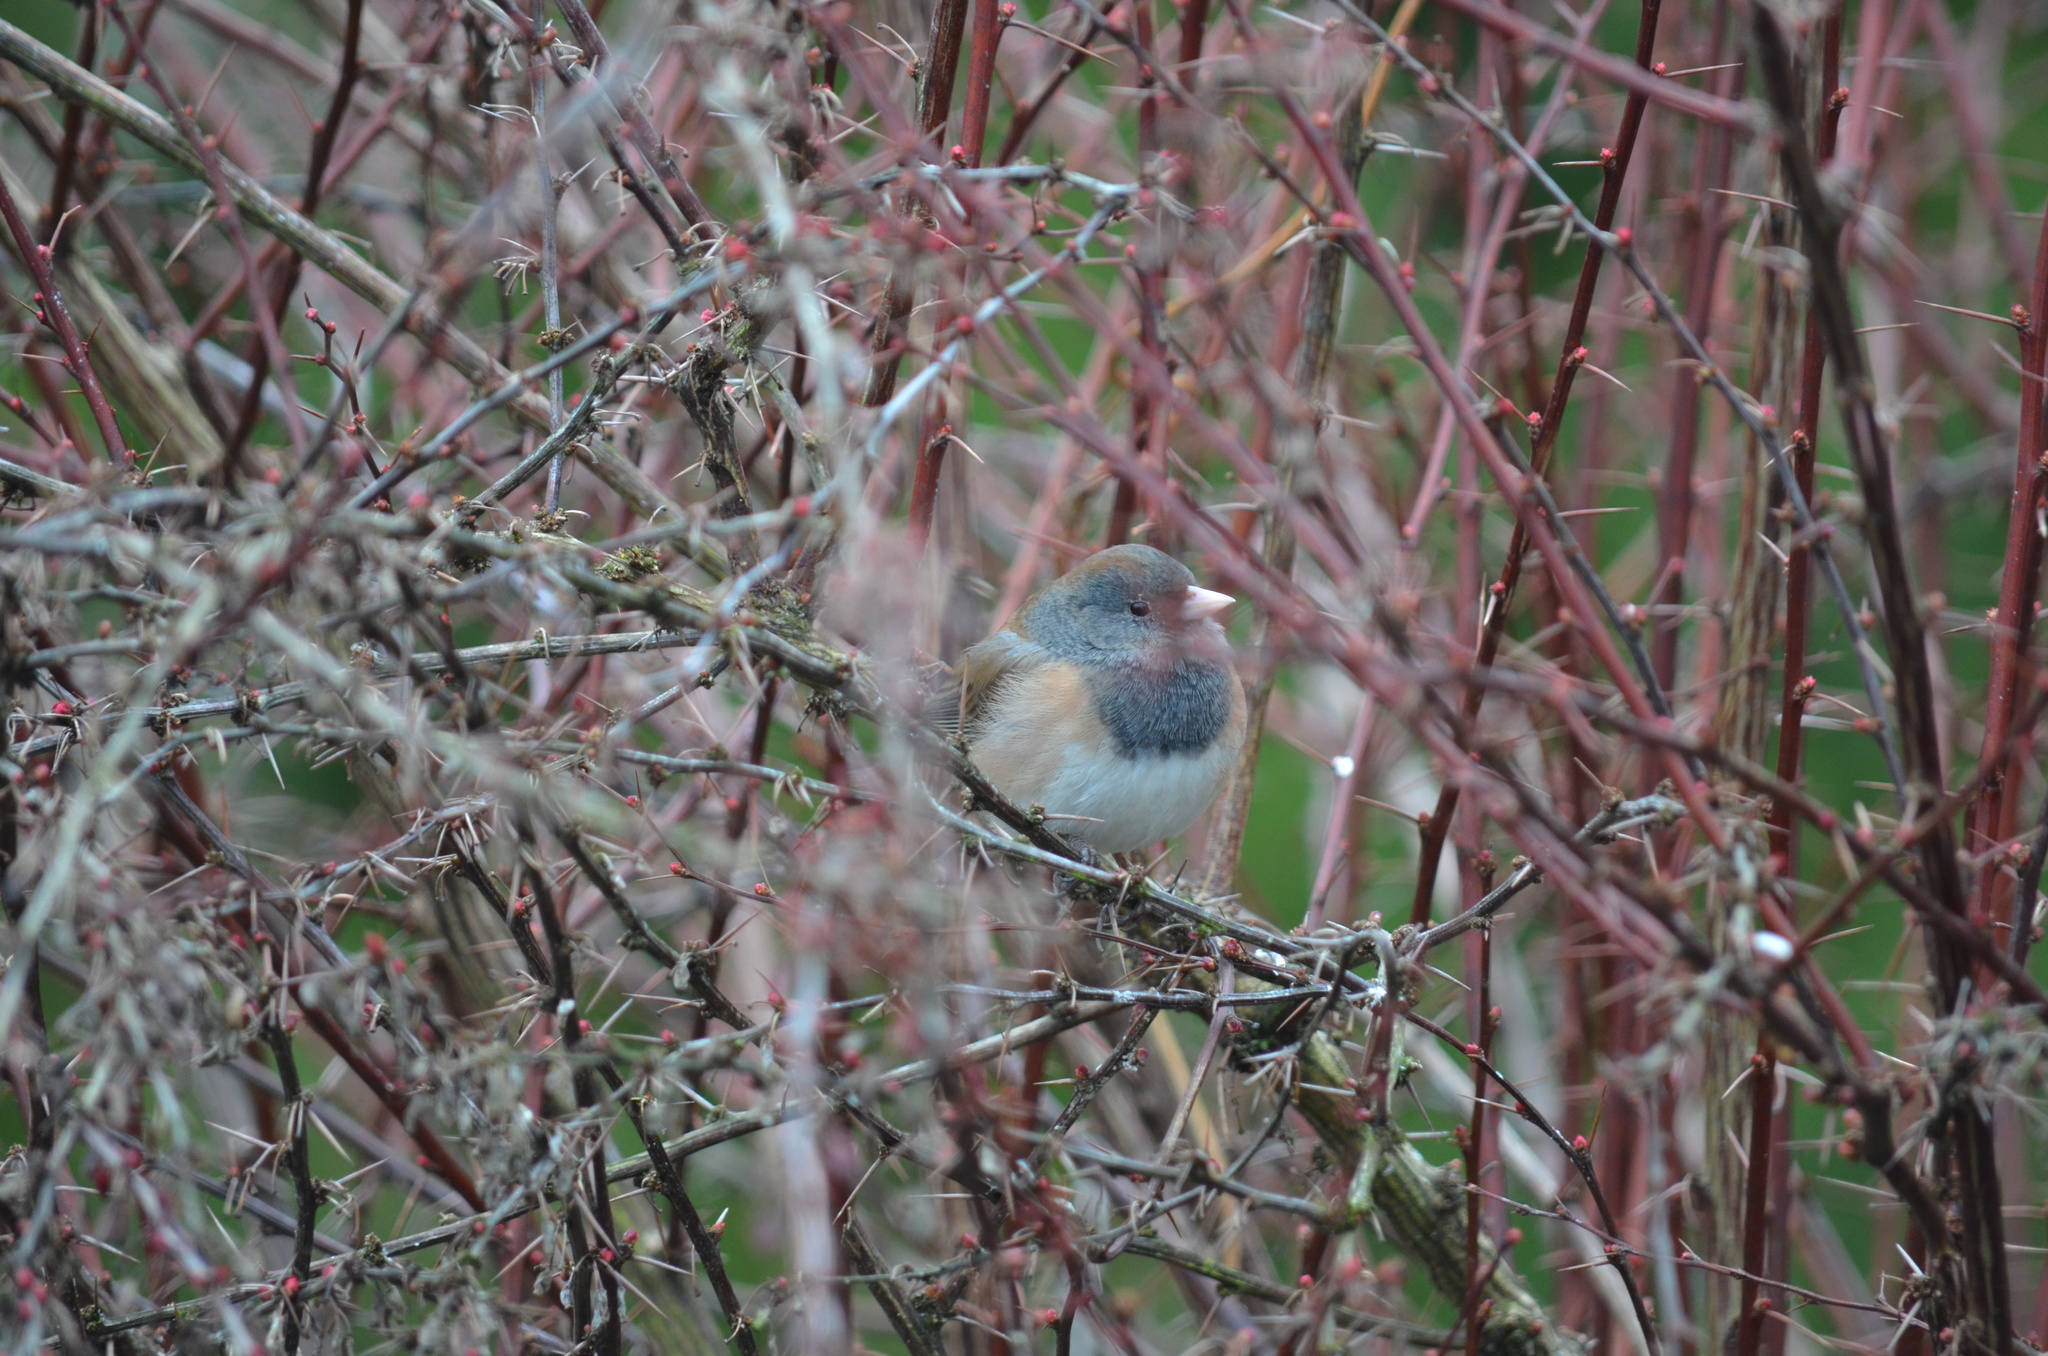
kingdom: Animalia
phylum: Chordata
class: Aves
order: Passeriformes
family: Passerellidae
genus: Junco
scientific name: Junco hyemalis
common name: Dark-eyed junco
